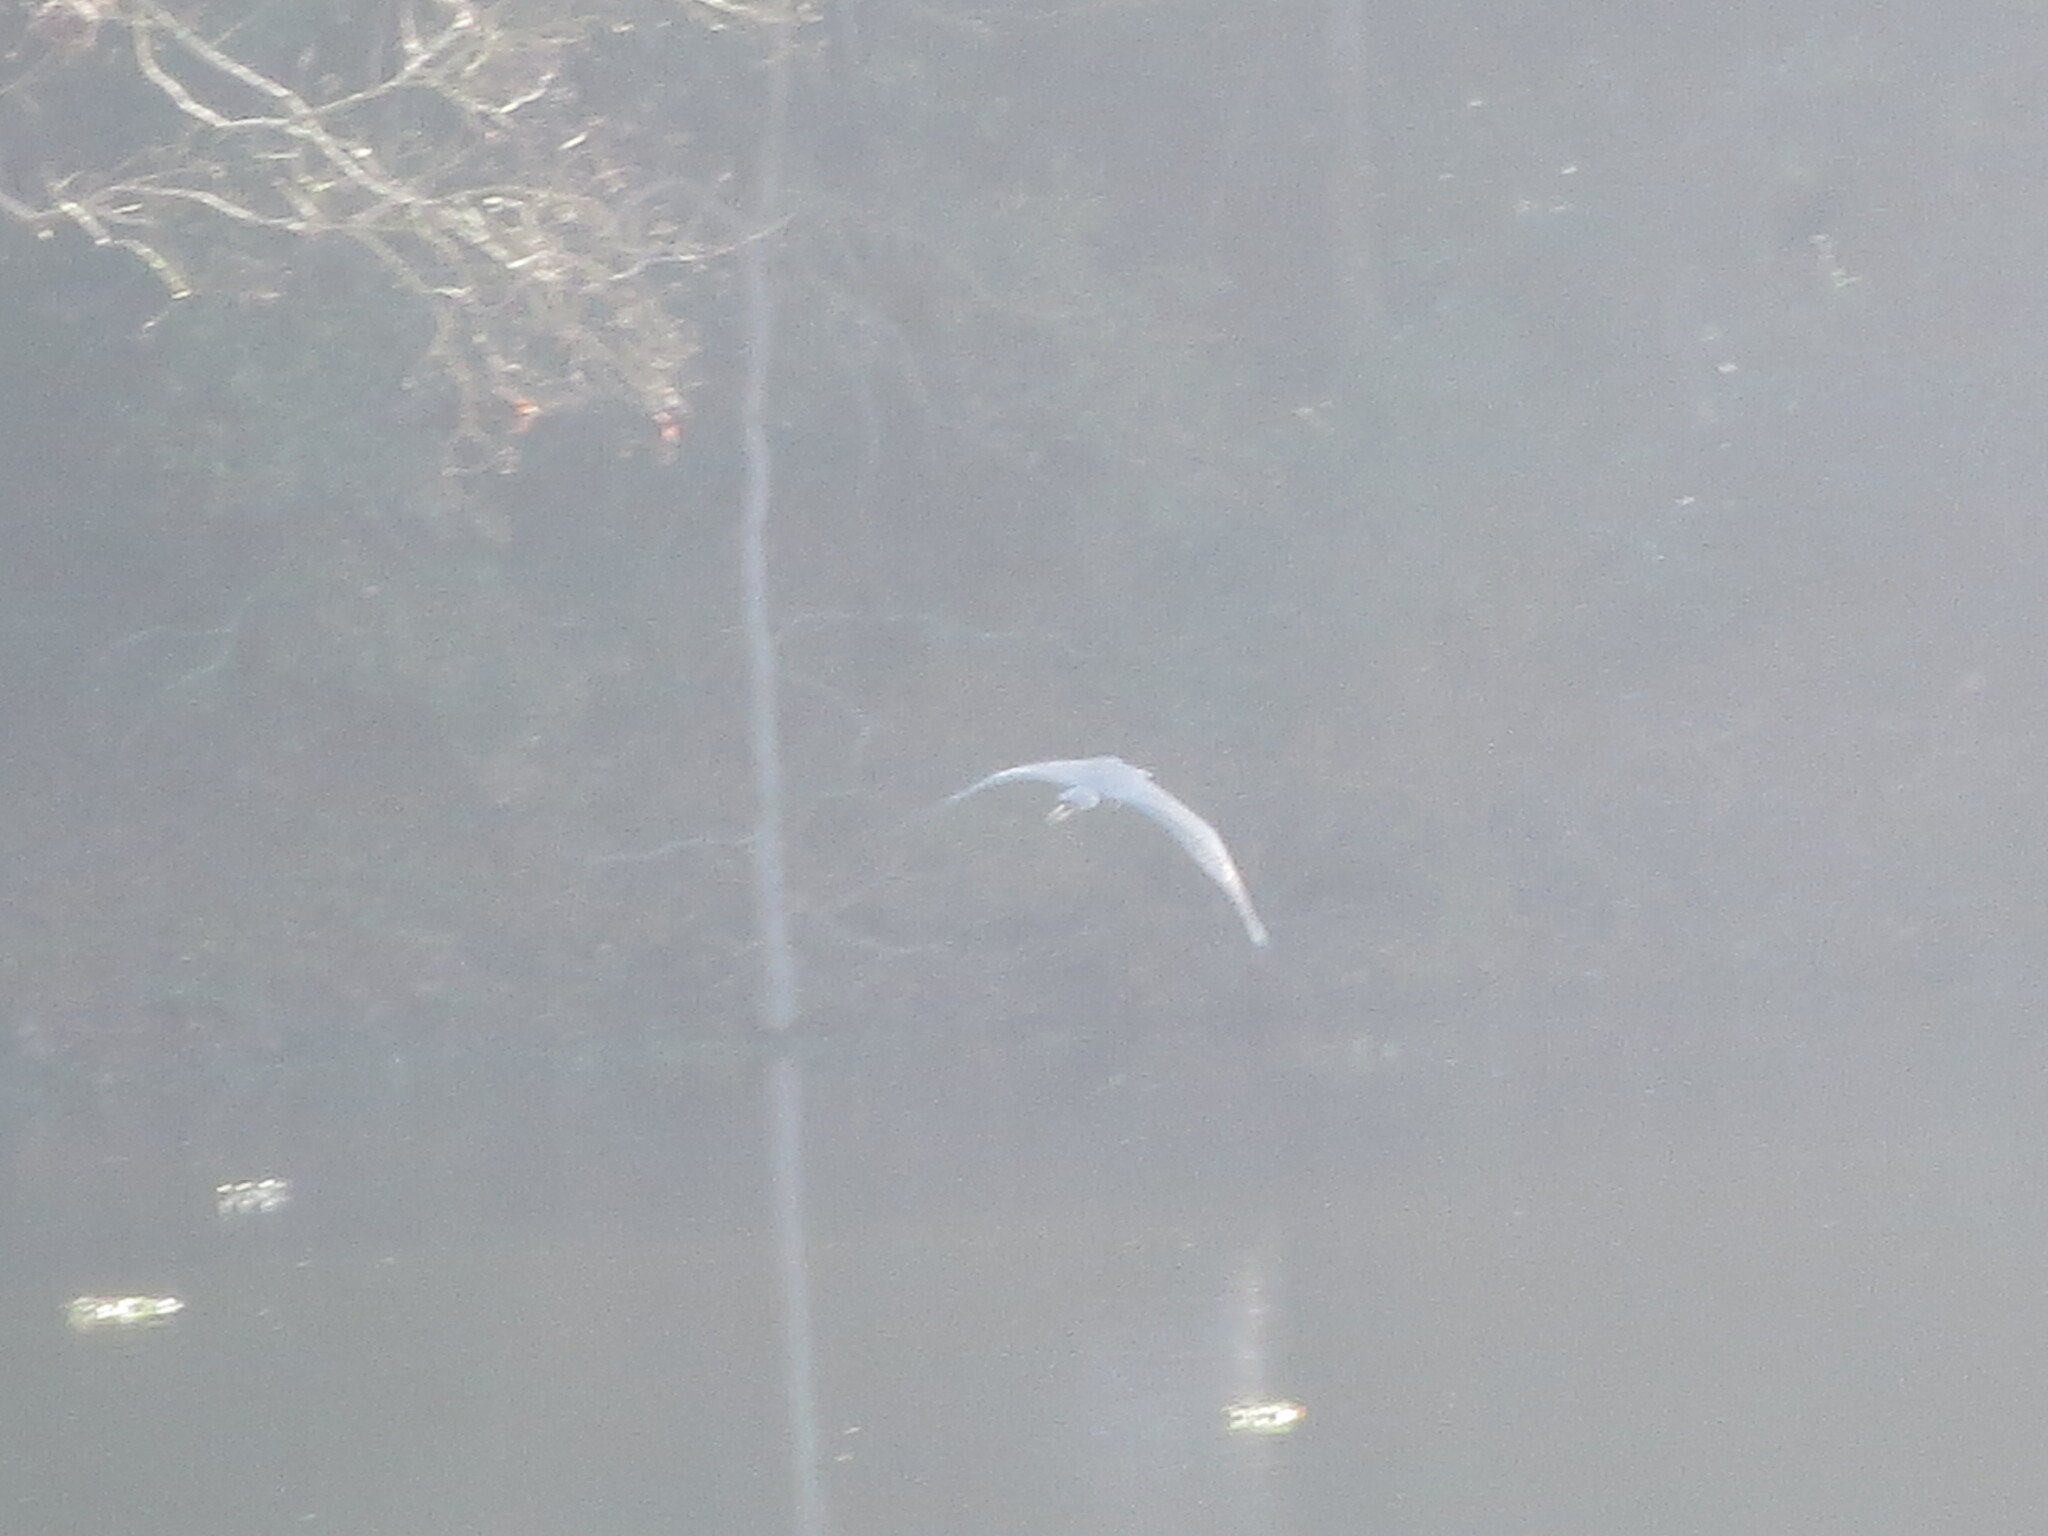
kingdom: Animalia
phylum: Chordata
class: Aves
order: Pelecaniformes
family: Ardeidae
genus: Ardea
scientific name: Ardea herodias
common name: Great blue heron
